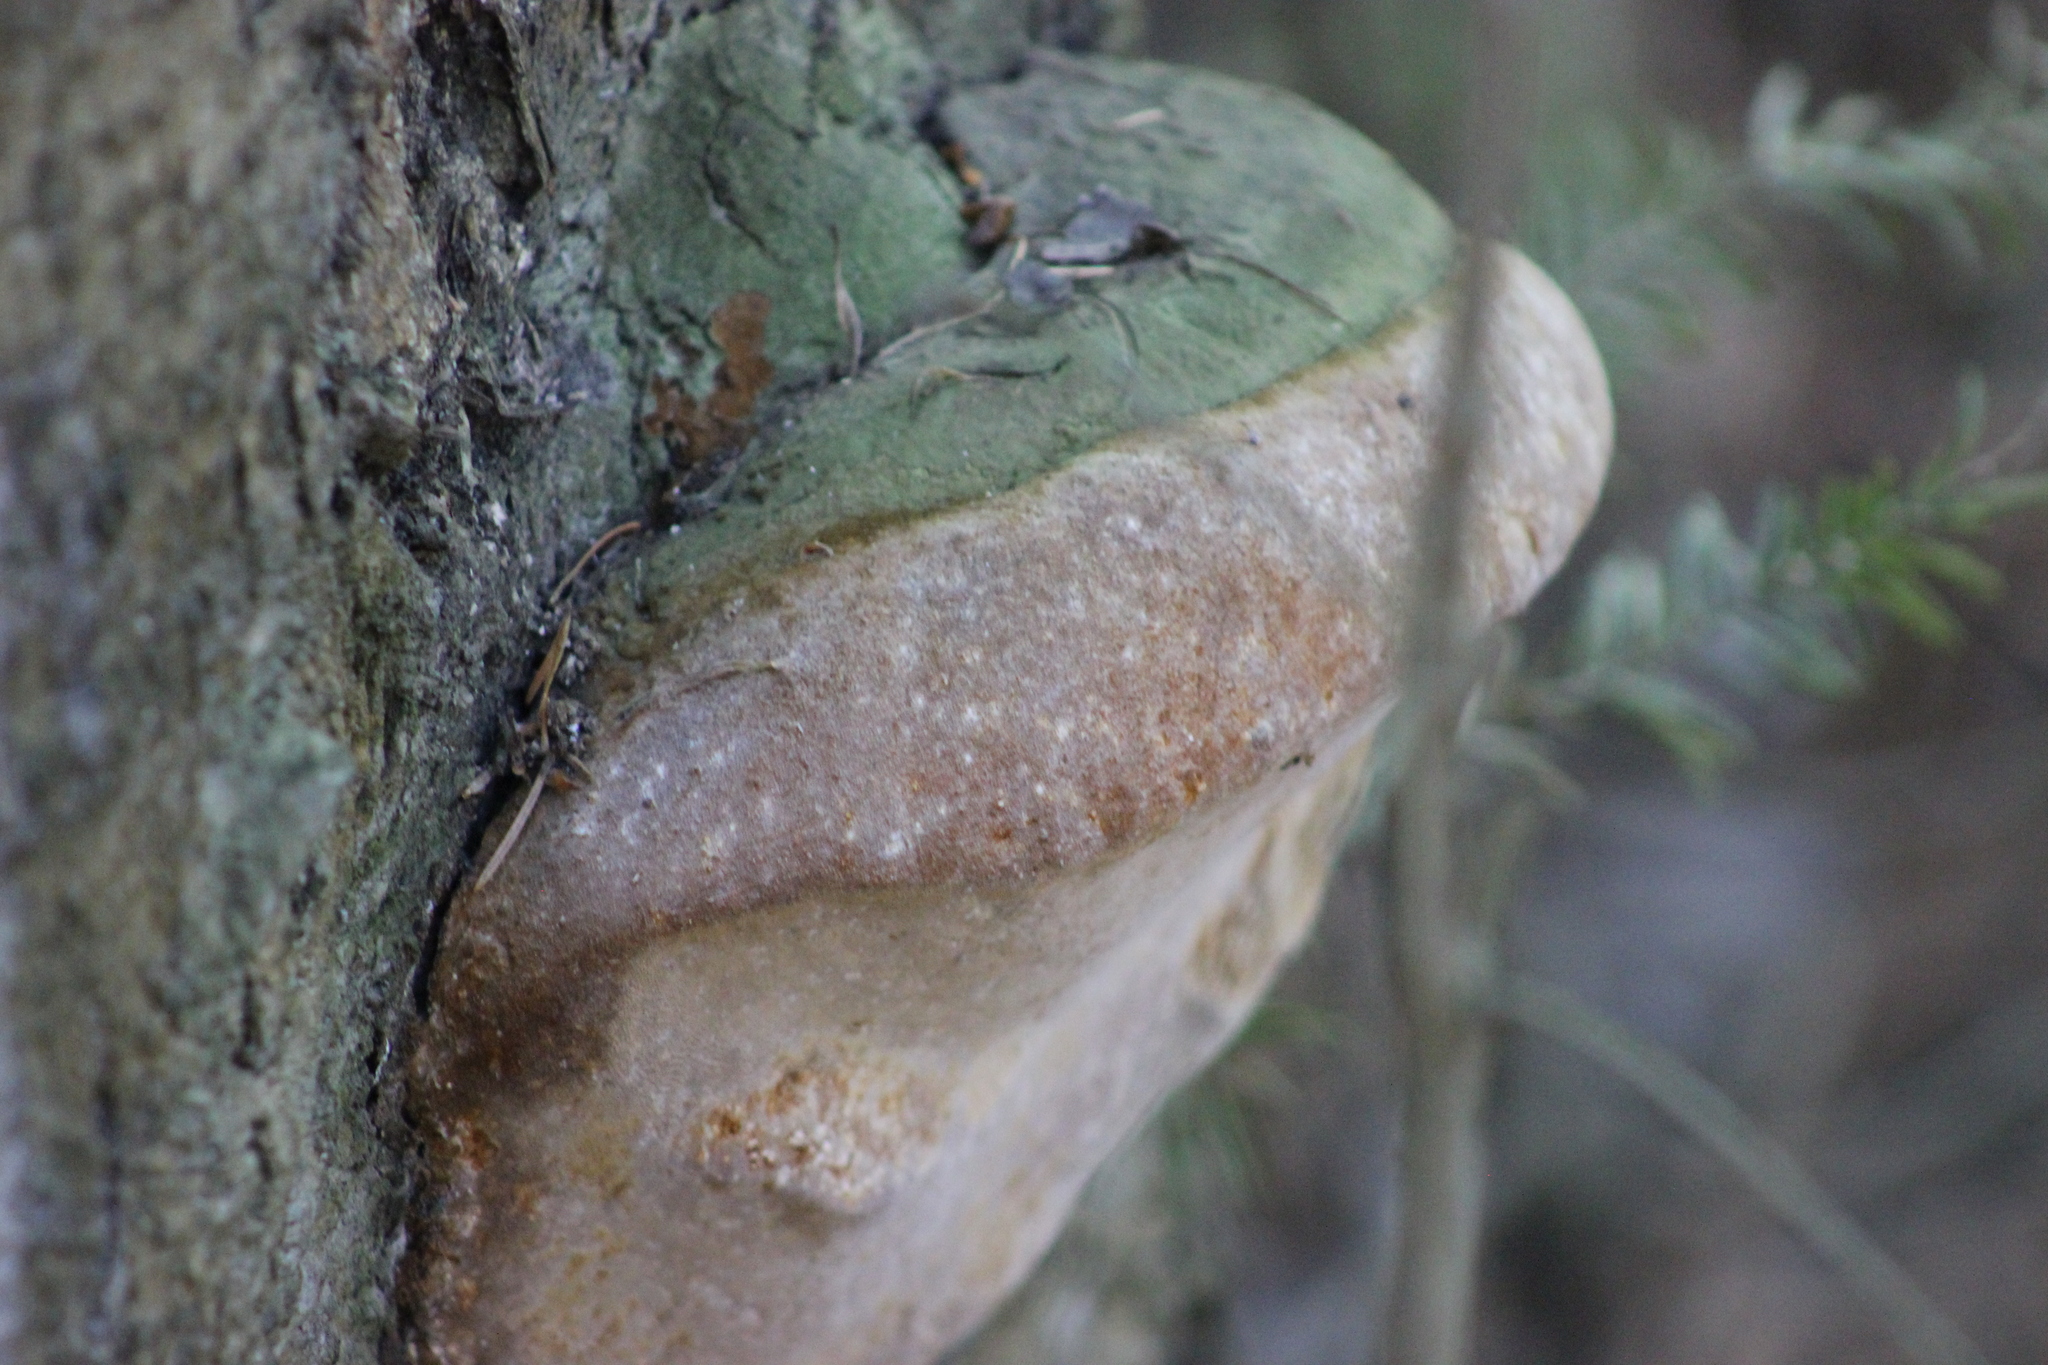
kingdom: Fungi
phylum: Basidiomycota
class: Agaricomycetes
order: Hymenochaetales
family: Hymenochaetaceae
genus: Phellinus
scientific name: Phellinus hartigii
